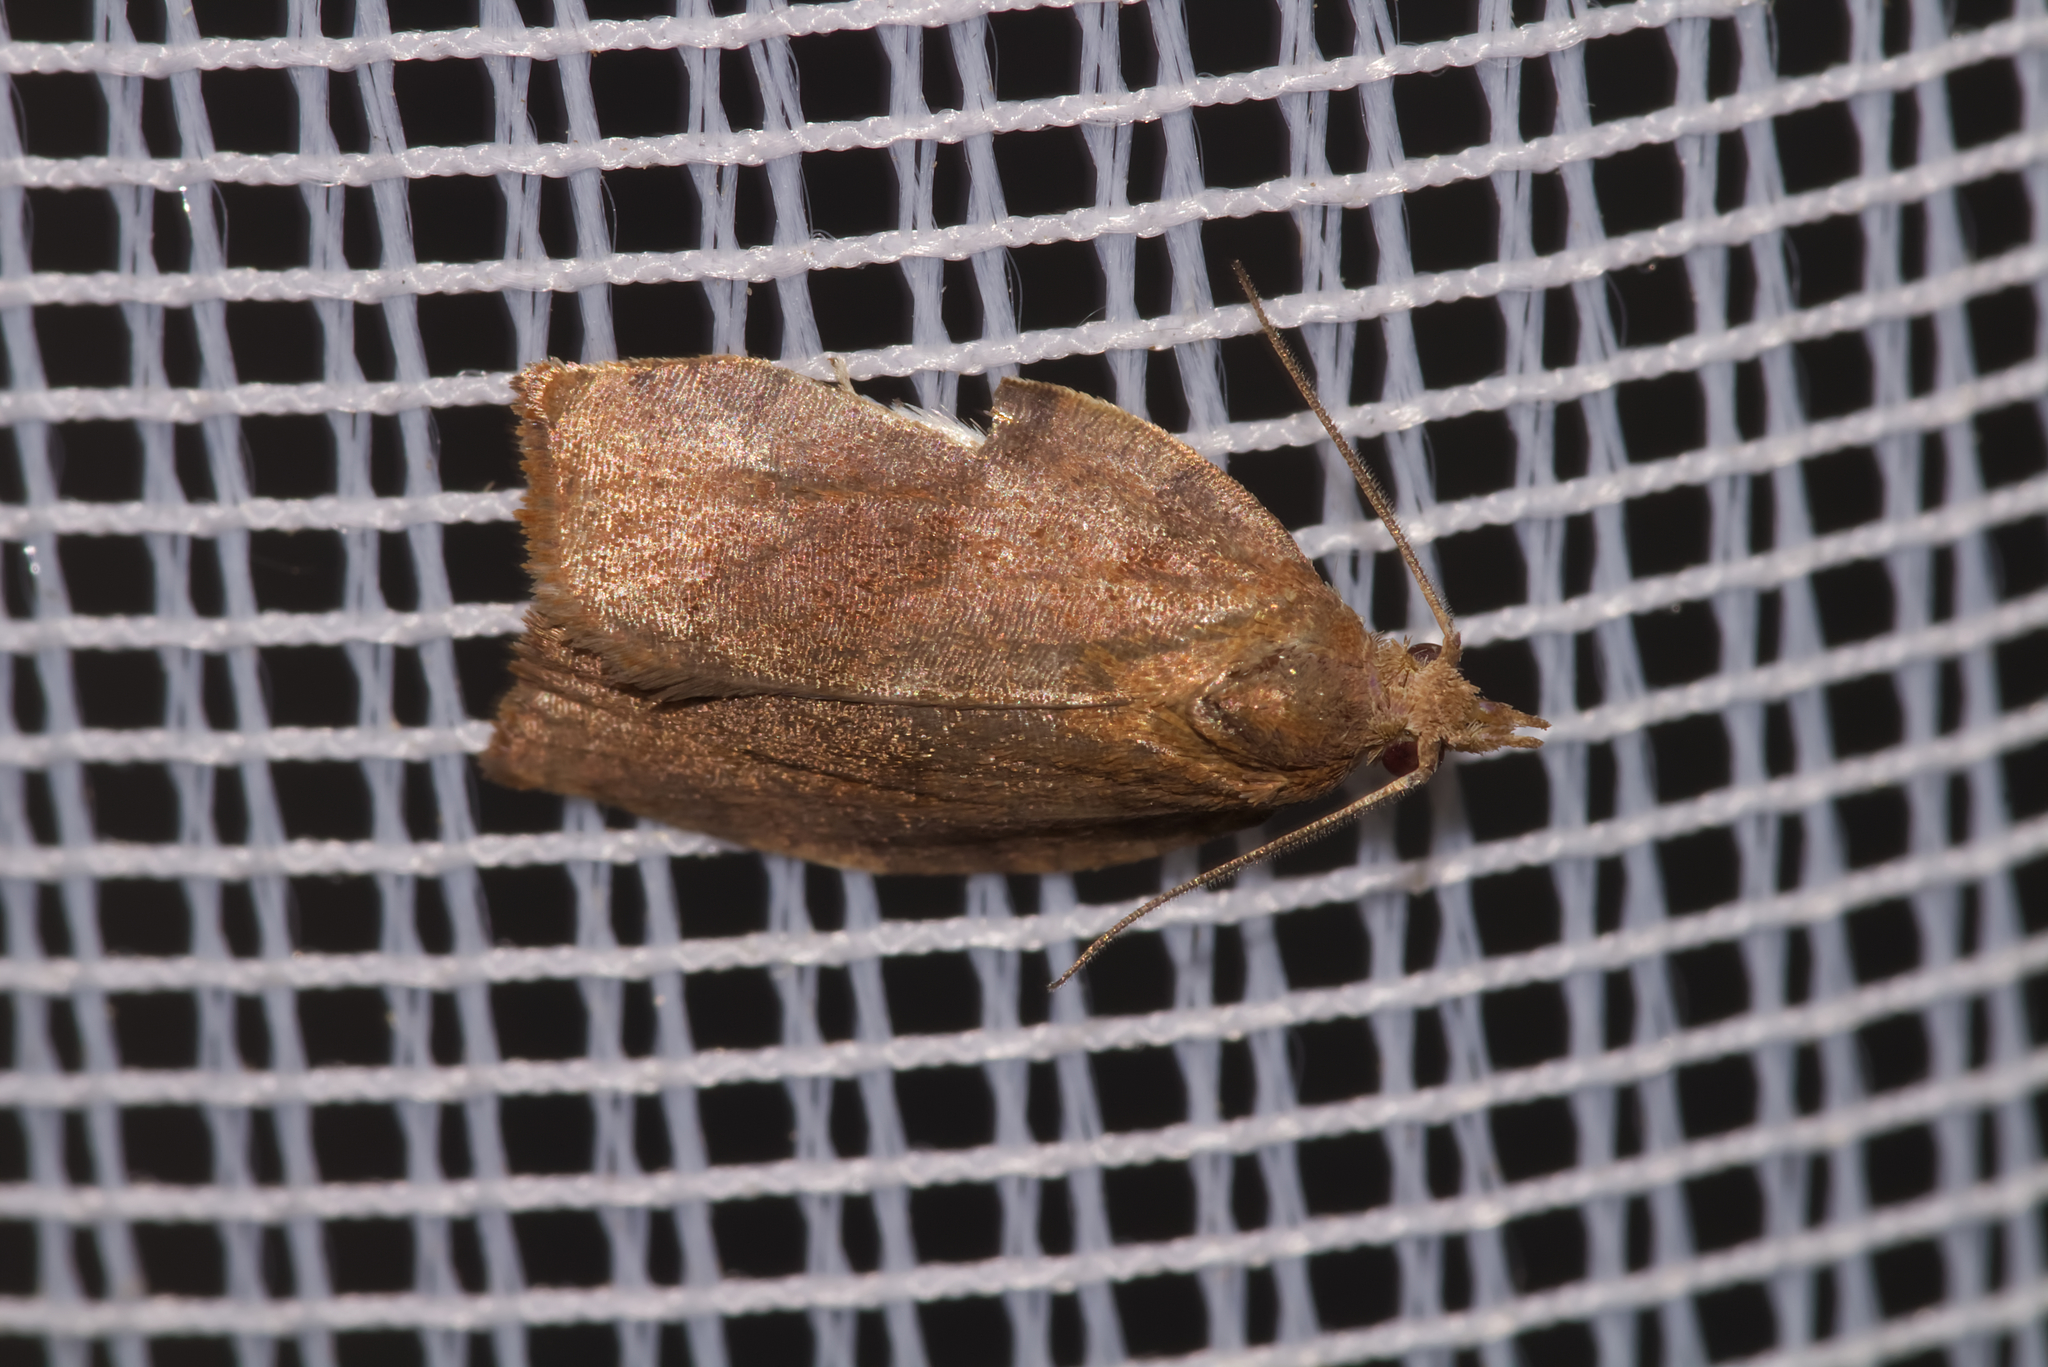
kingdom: Animalia
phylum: Arthropoda
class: Insecta
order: Lepidoptera
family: Tortricidae
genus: Pandemis
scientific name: Pandemis heparana
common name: Dark fruit-tree tortrix
